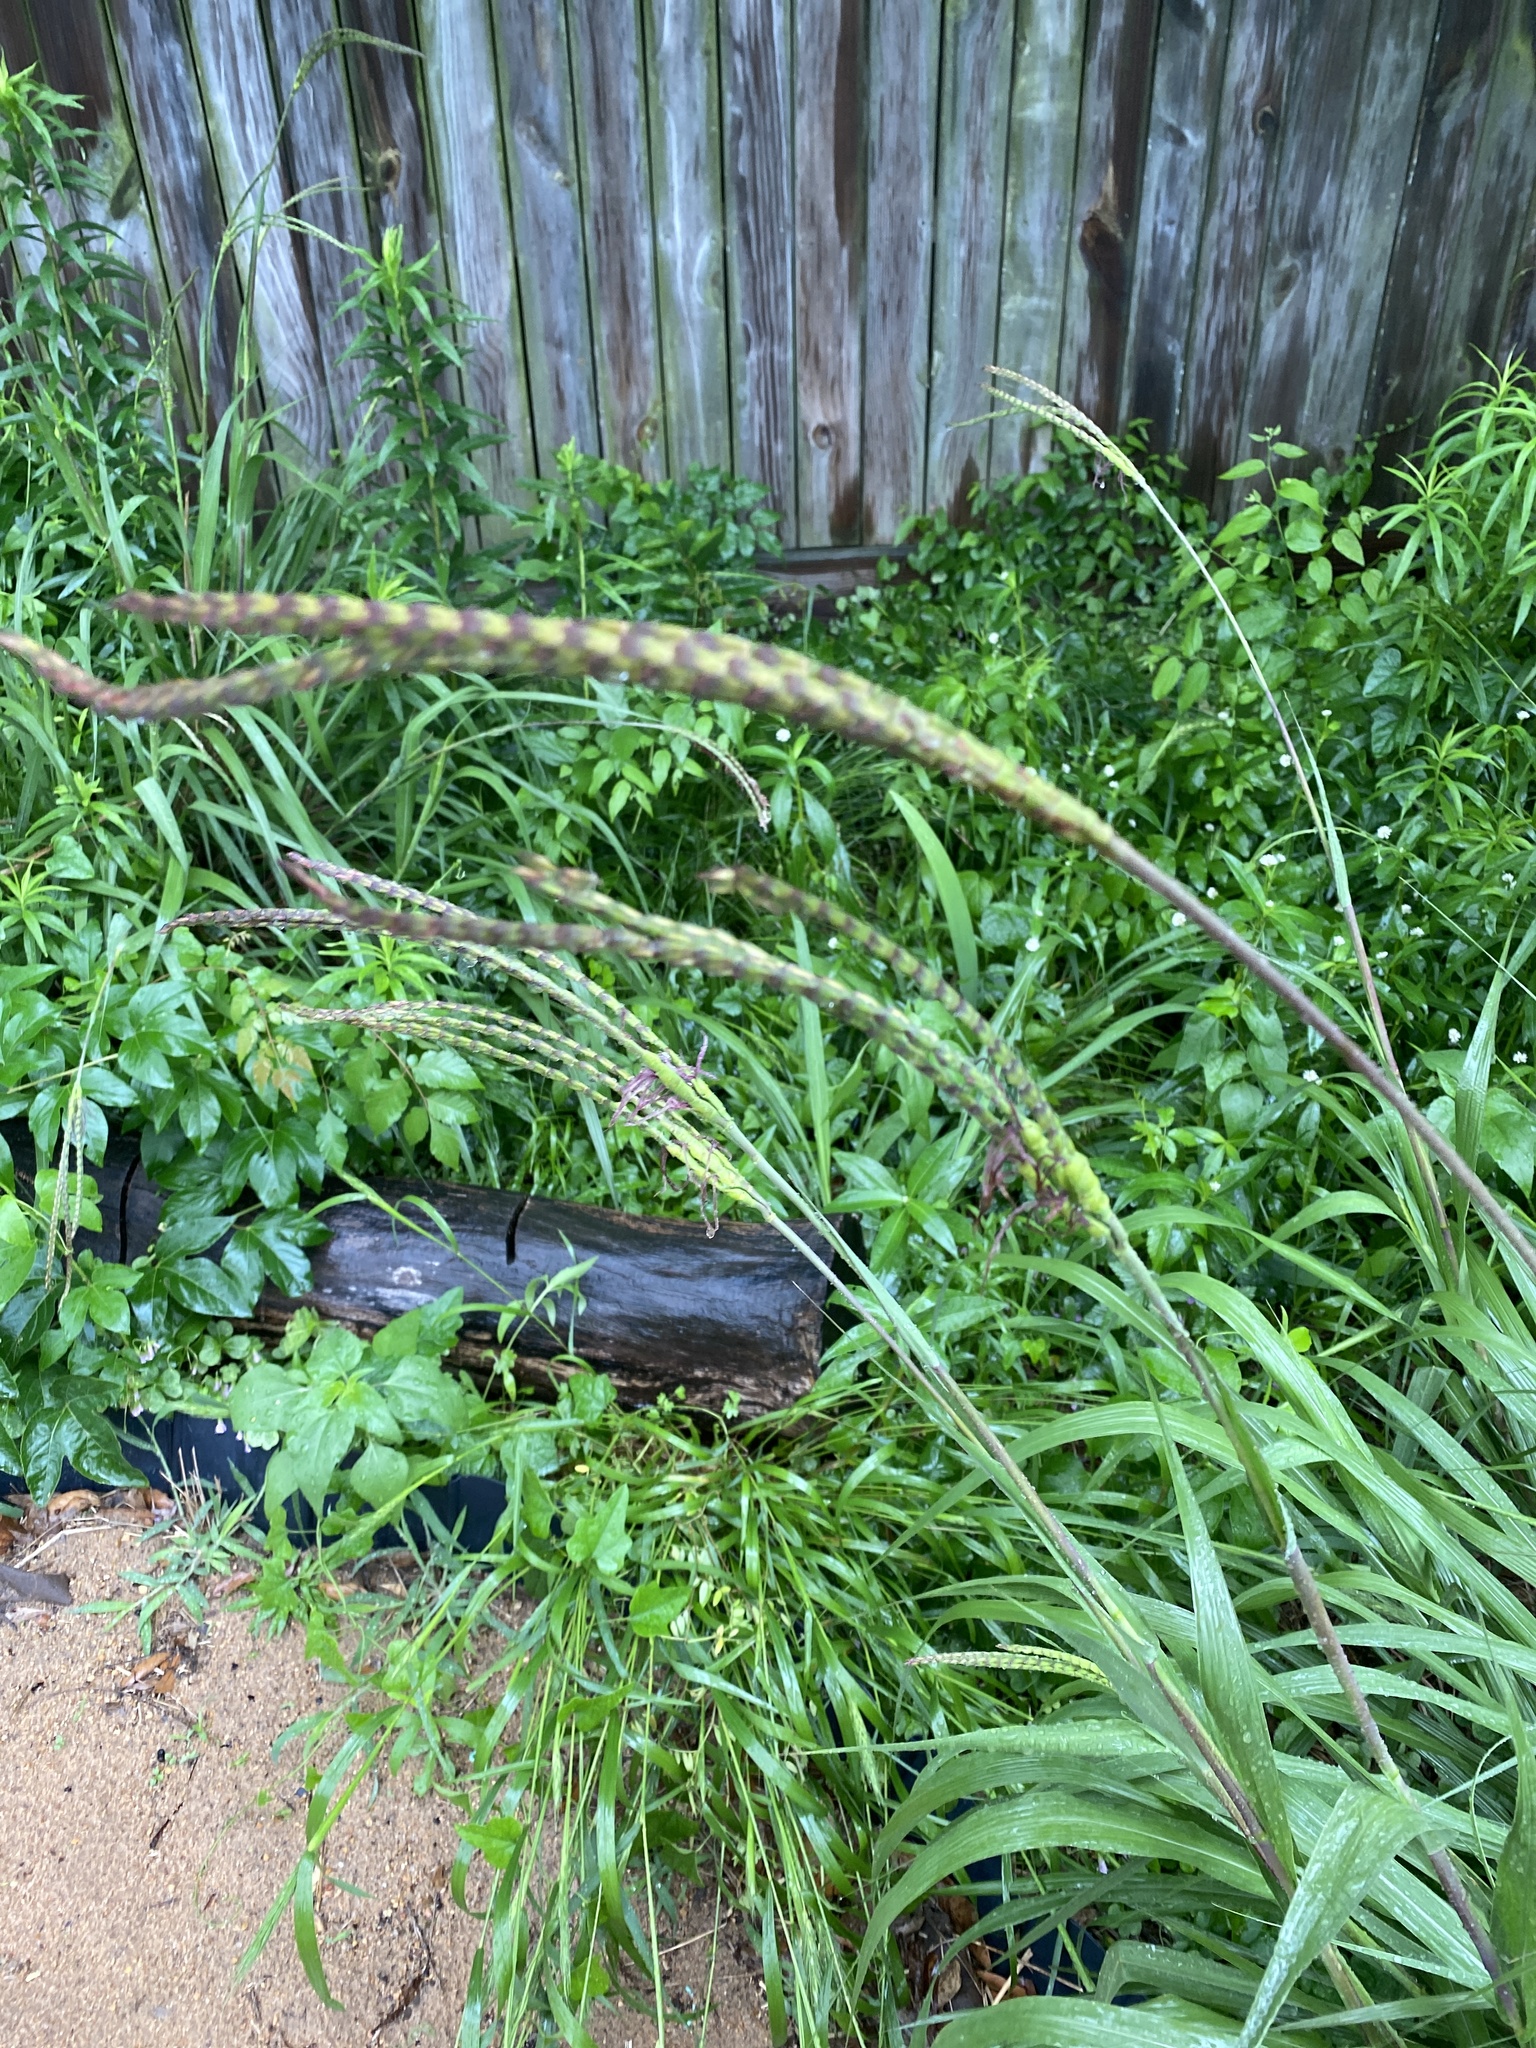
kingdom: Plantae
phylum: Tracheophyta
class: Liliopsida
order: Poales
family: Poaceae
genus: Tripsacum
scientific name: Tripsacum dactyloides
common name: Buffalo-grass
